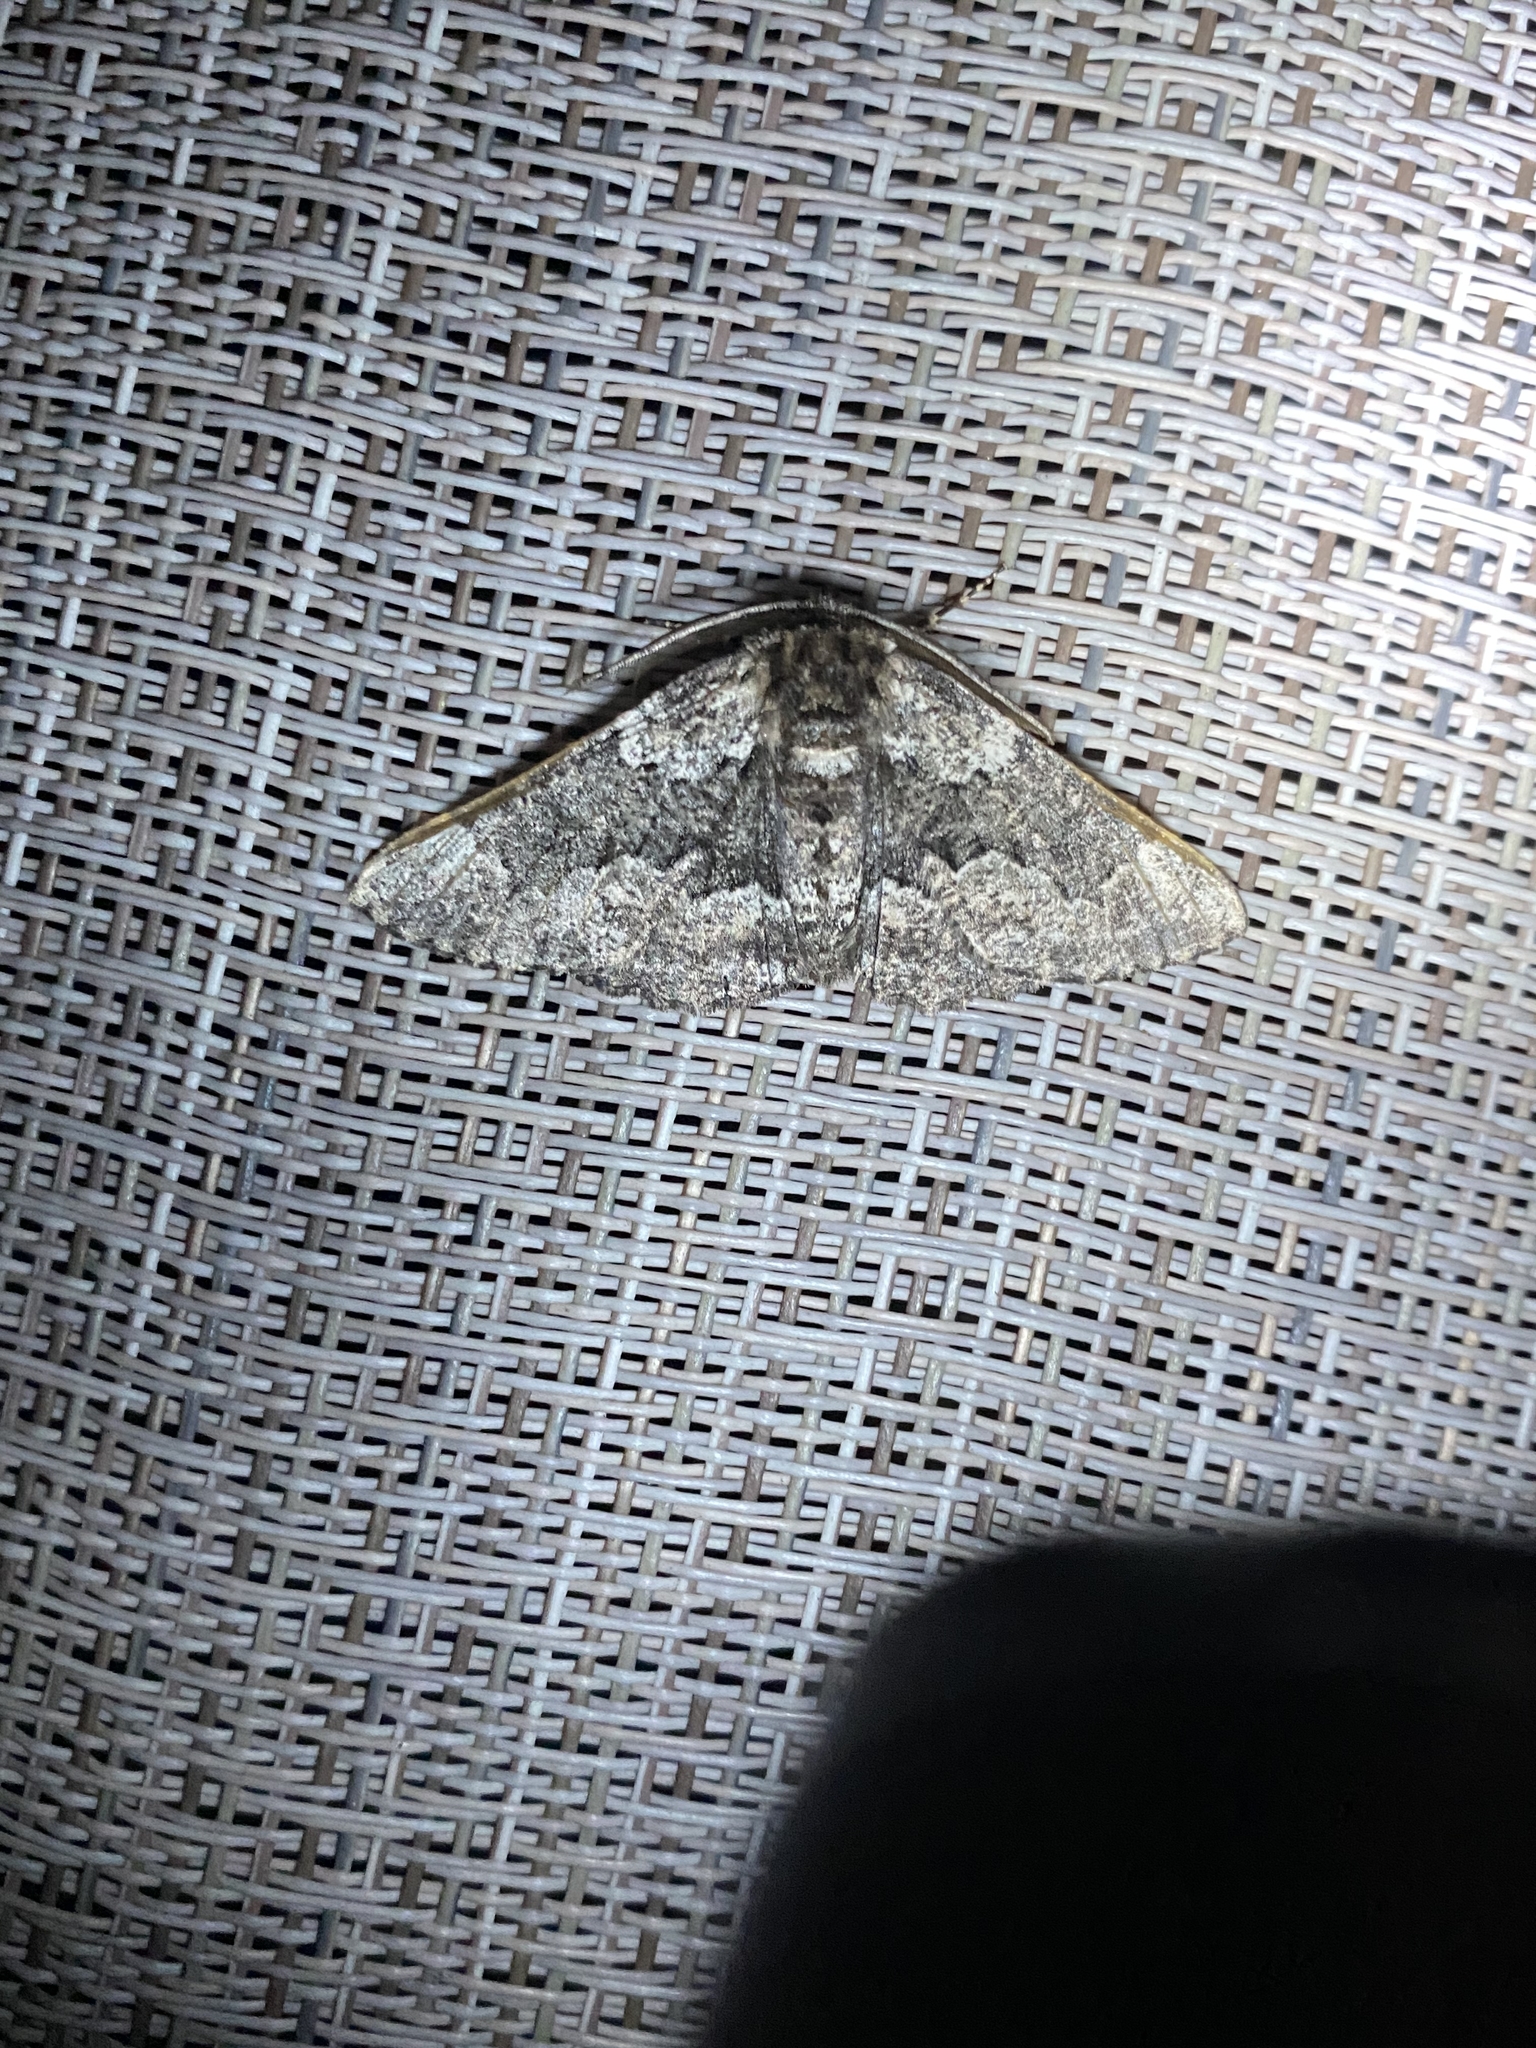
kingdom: Animalia
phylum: Arthropoda
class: Insecta
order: Lepidoptera
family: Geometridae
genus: Phaeoura
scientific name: Phaeoura quernaria
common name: Oak beauty
